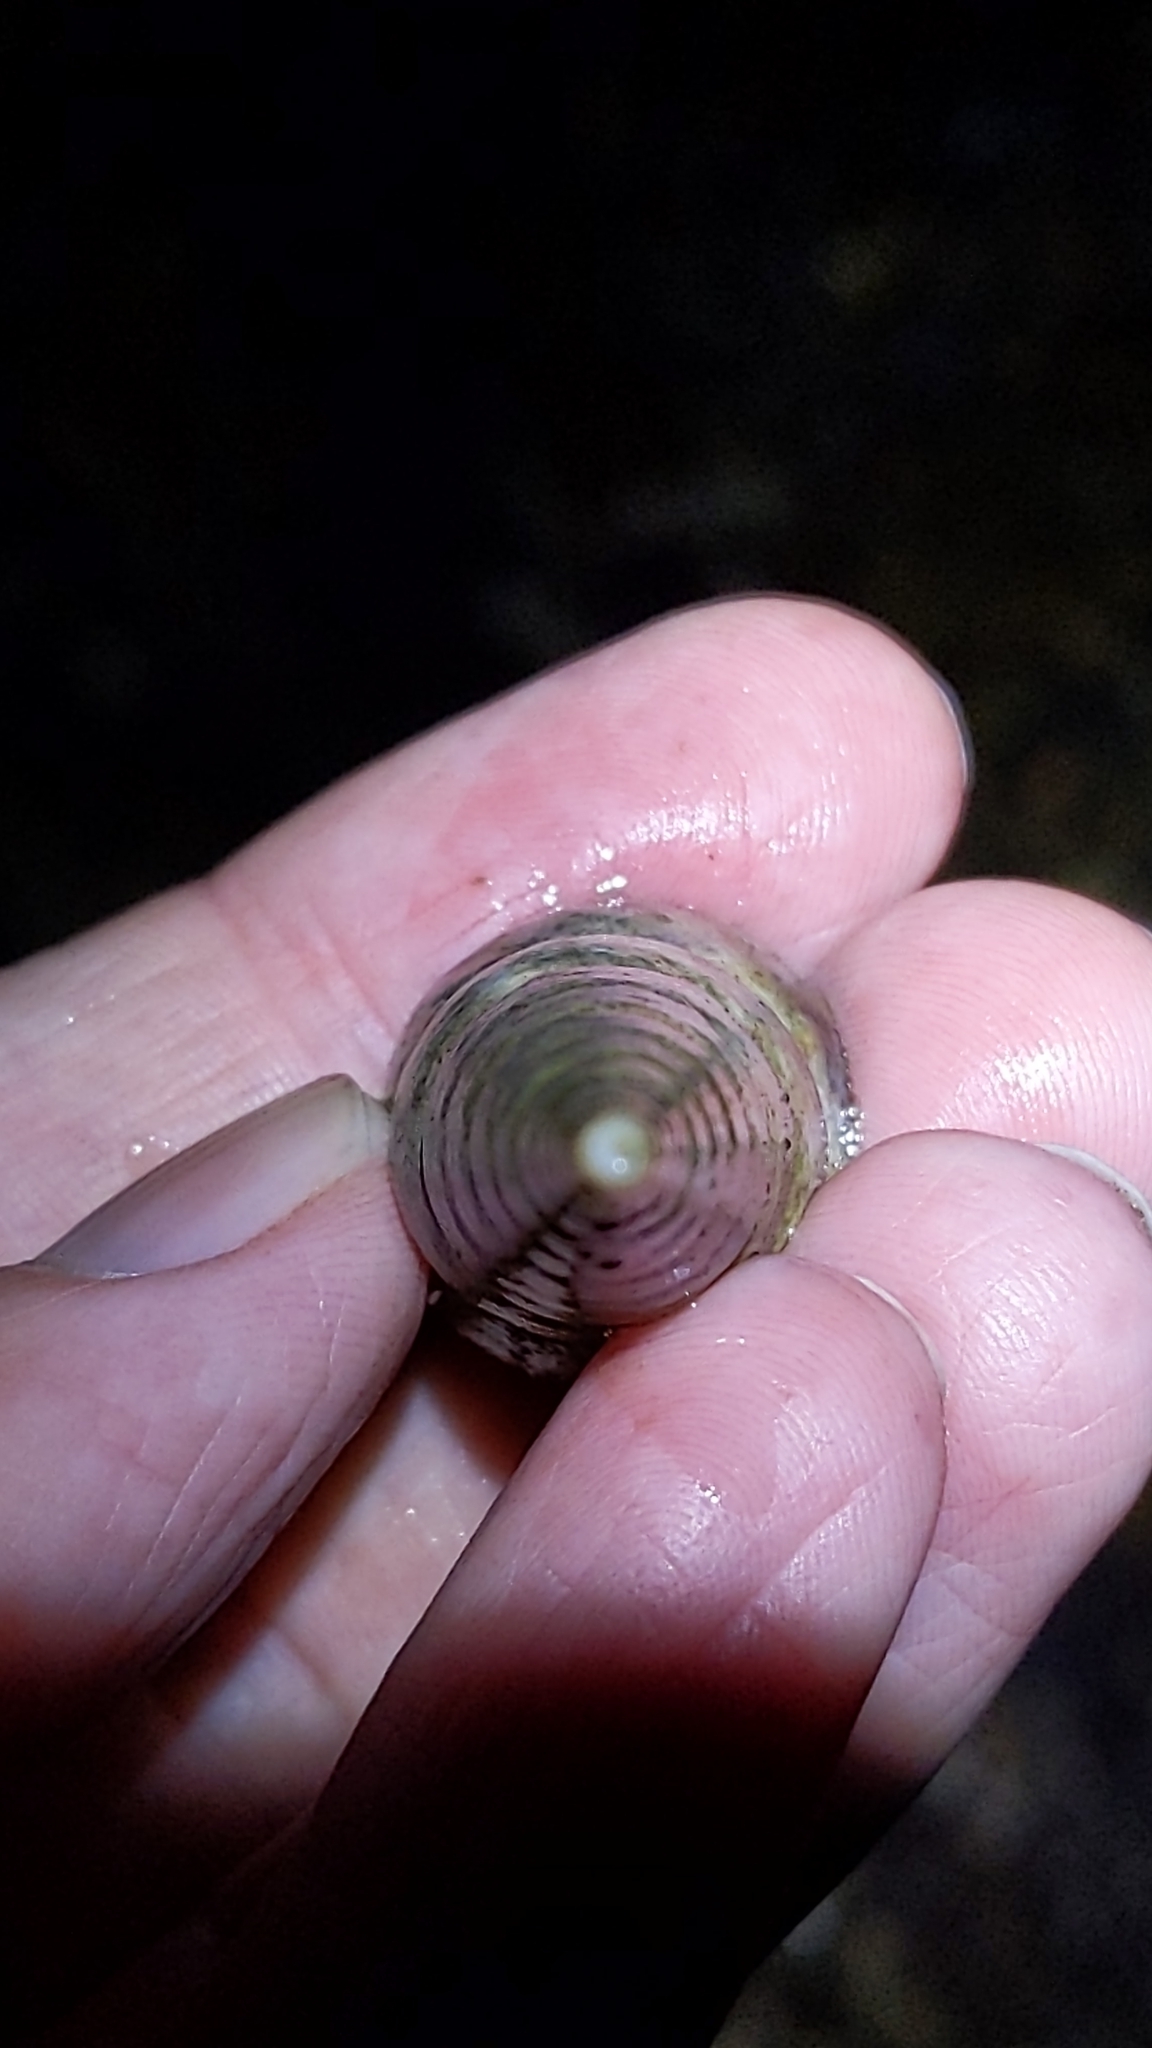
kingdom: Animalia
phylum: Mollusca
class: Gastropoda
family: Turritellidae
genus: Maoricolpus
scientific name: Maoricolpus roseus
